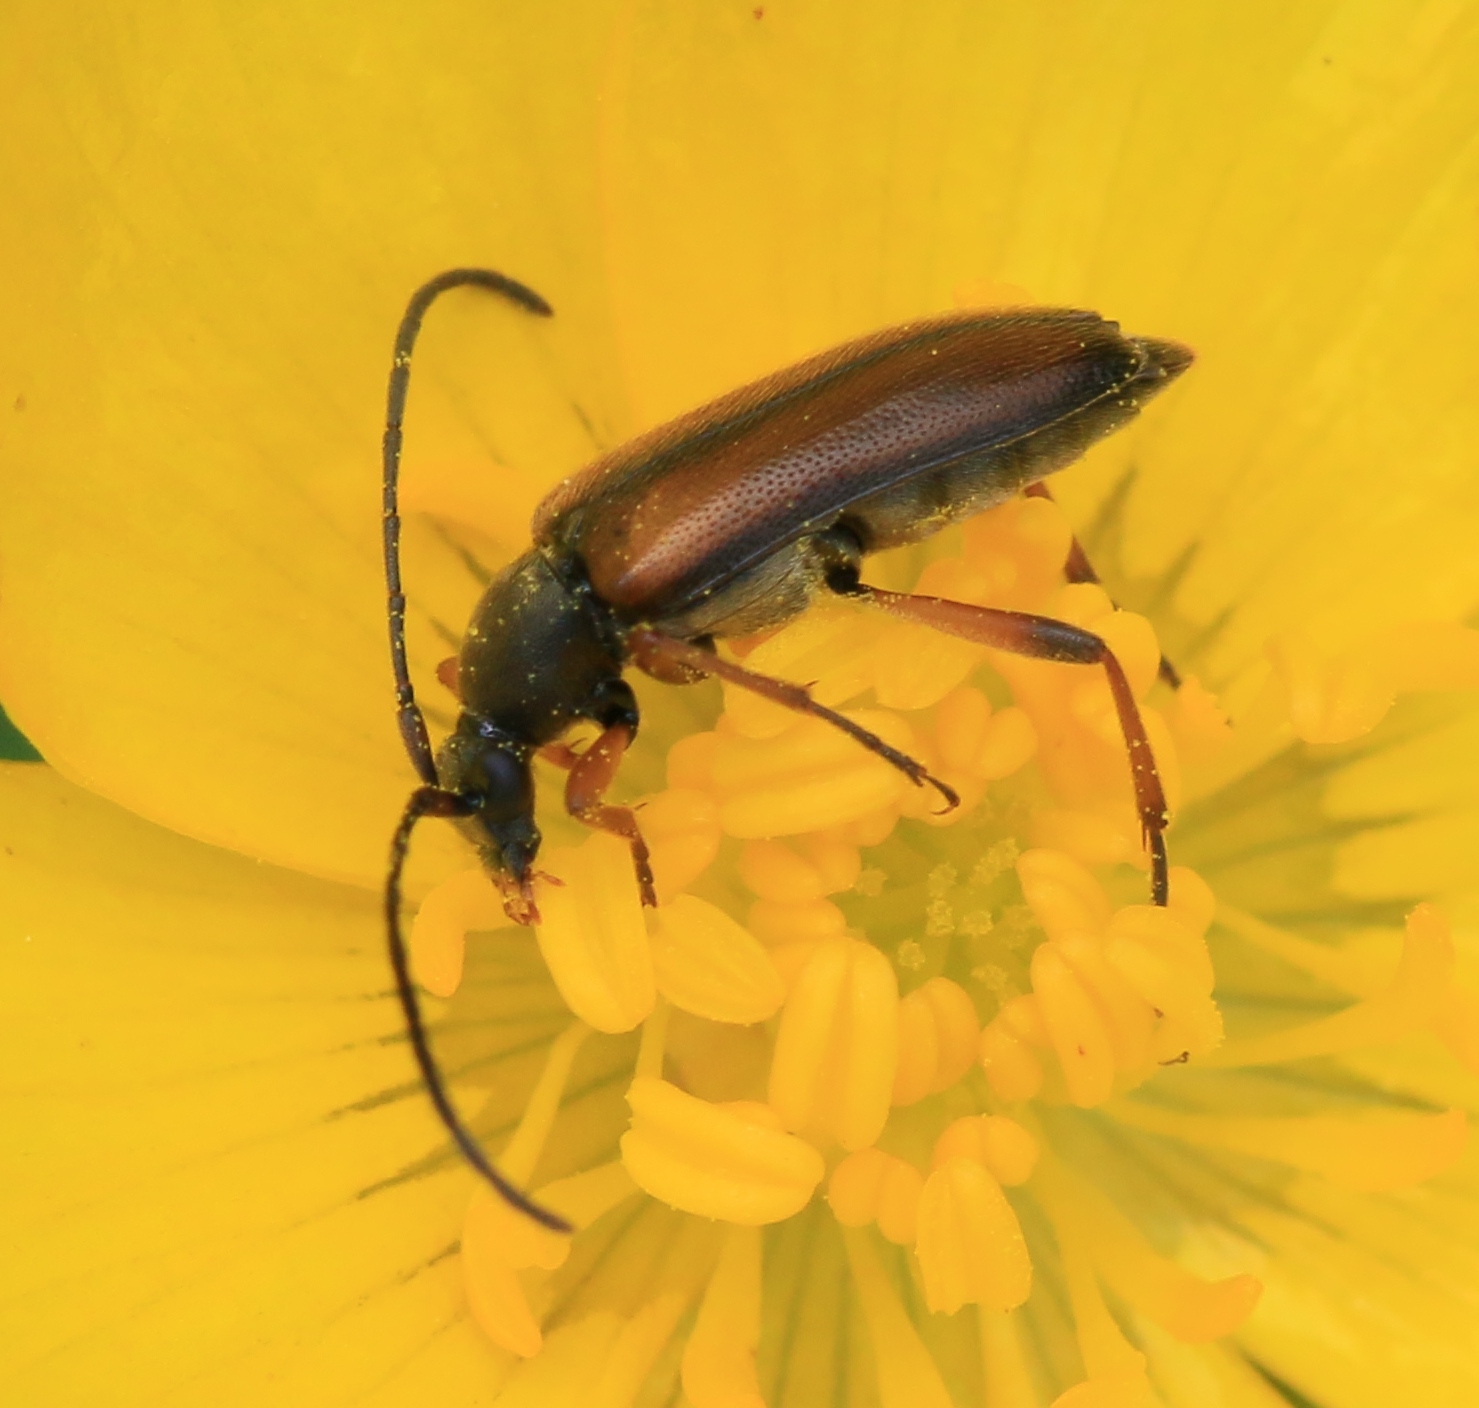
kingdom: Animalia
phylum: Arthropoda
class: Insecta
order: Coleoptera
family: Cerambycidae
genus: Alosterna
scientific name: Alosterna tabacicolor
